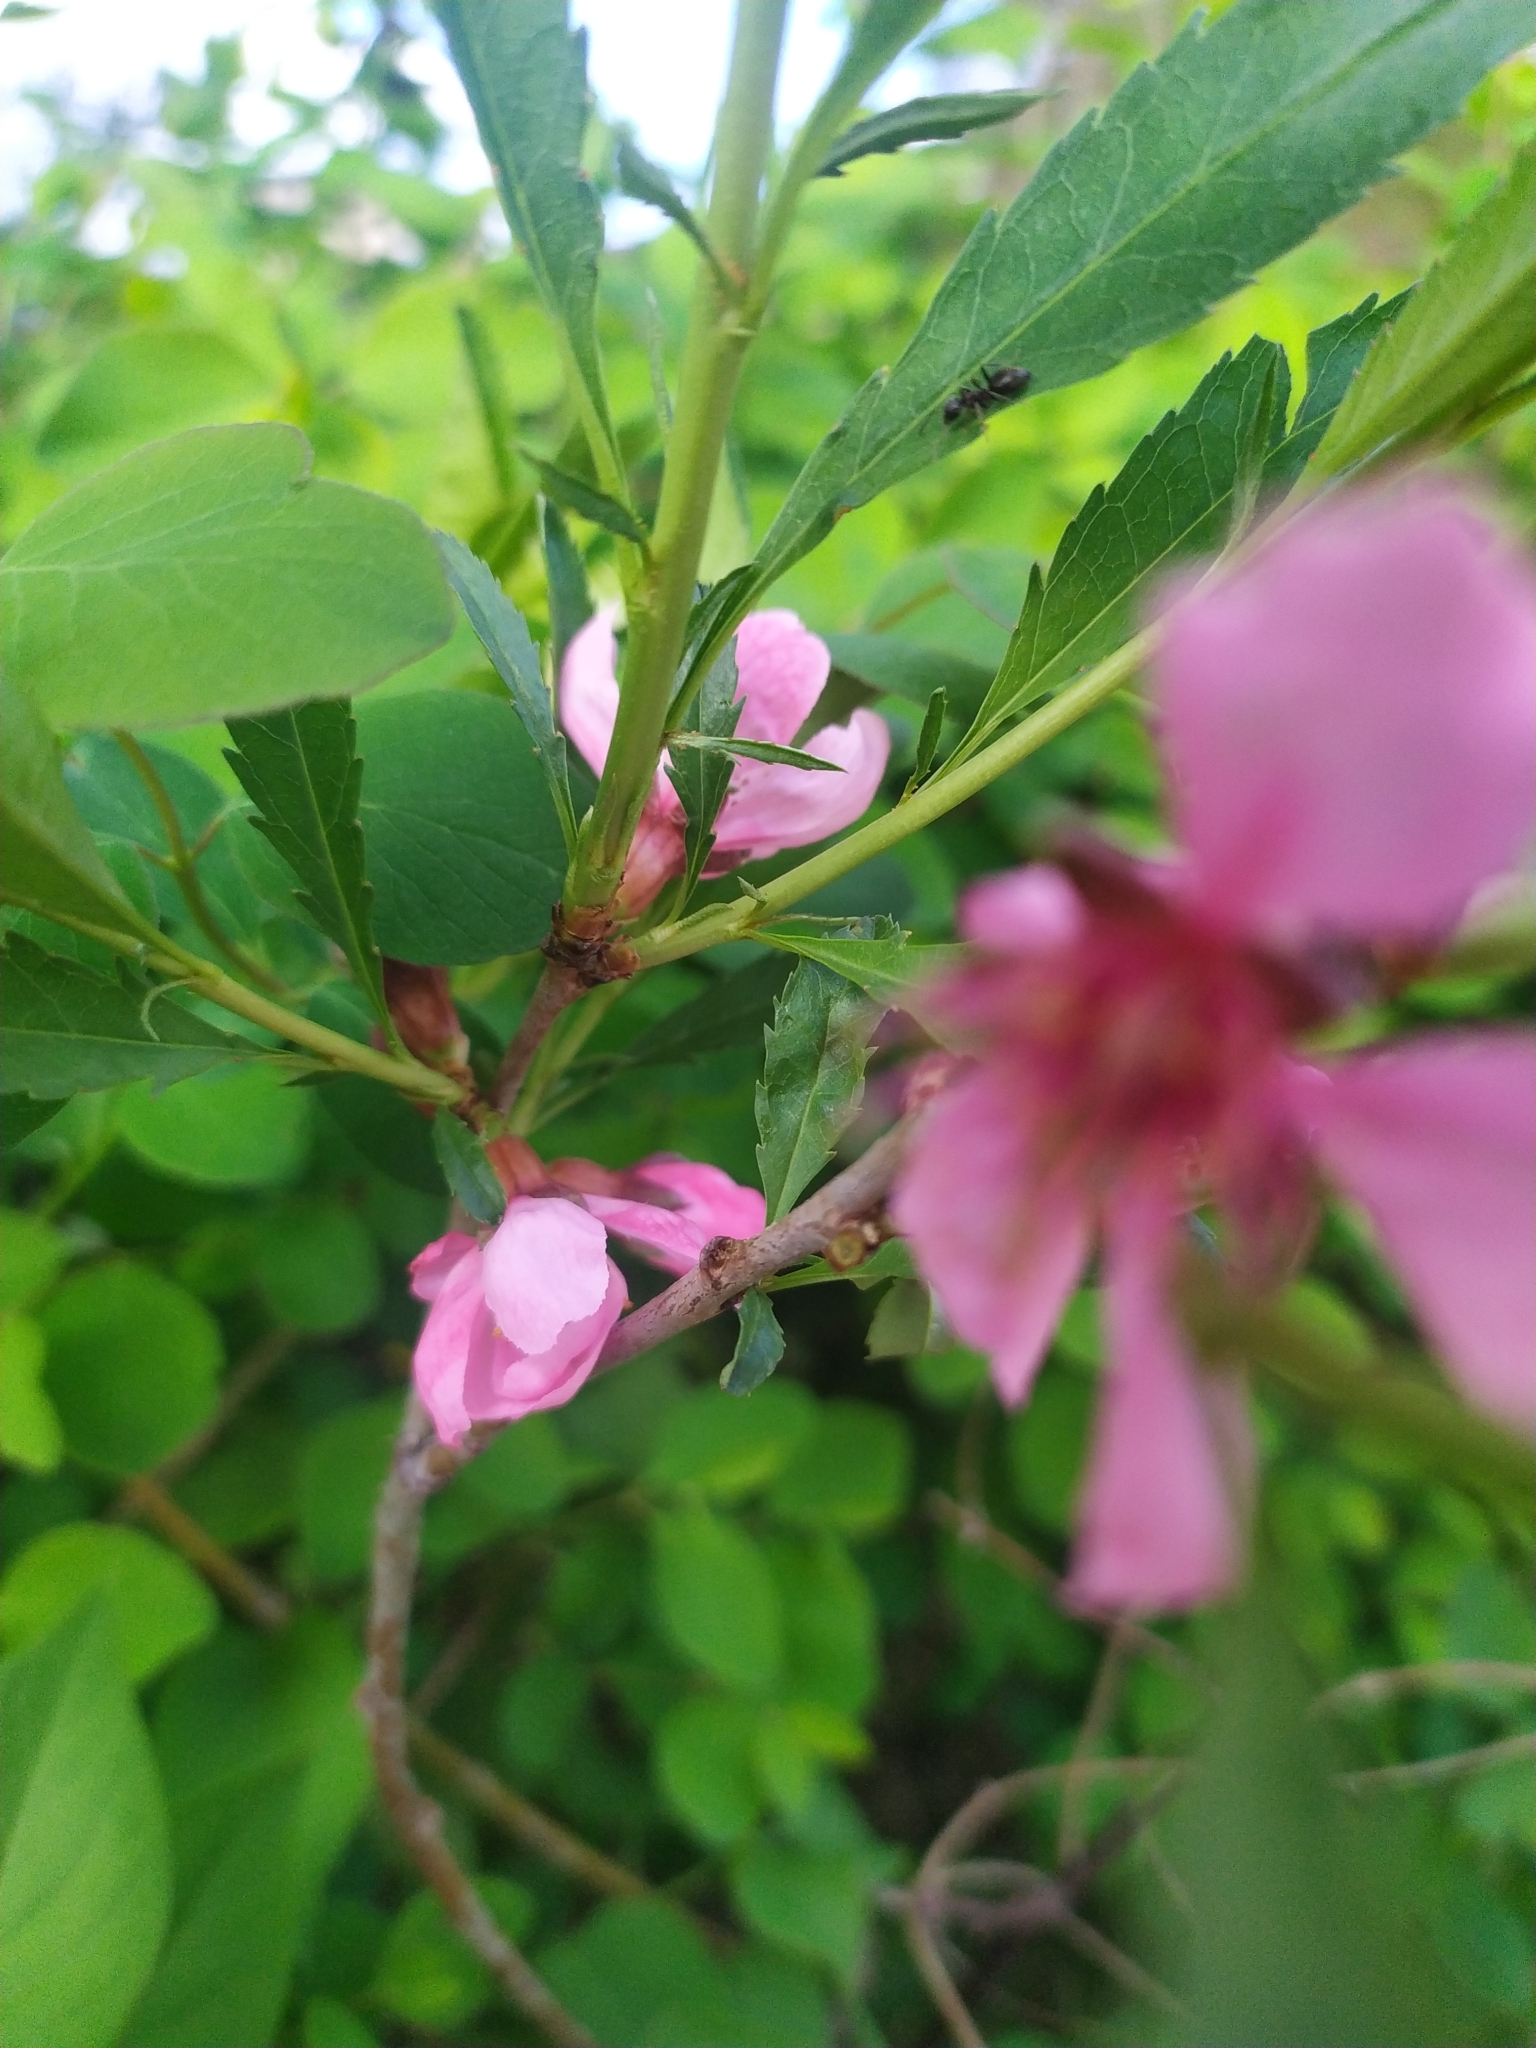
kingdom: Plantae
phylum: Tracheophyta
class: Magnoliopsida
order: Rosales
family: Rosaceae
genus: Prunus
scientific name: Prunus tenella
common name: Dwarf russian almond
